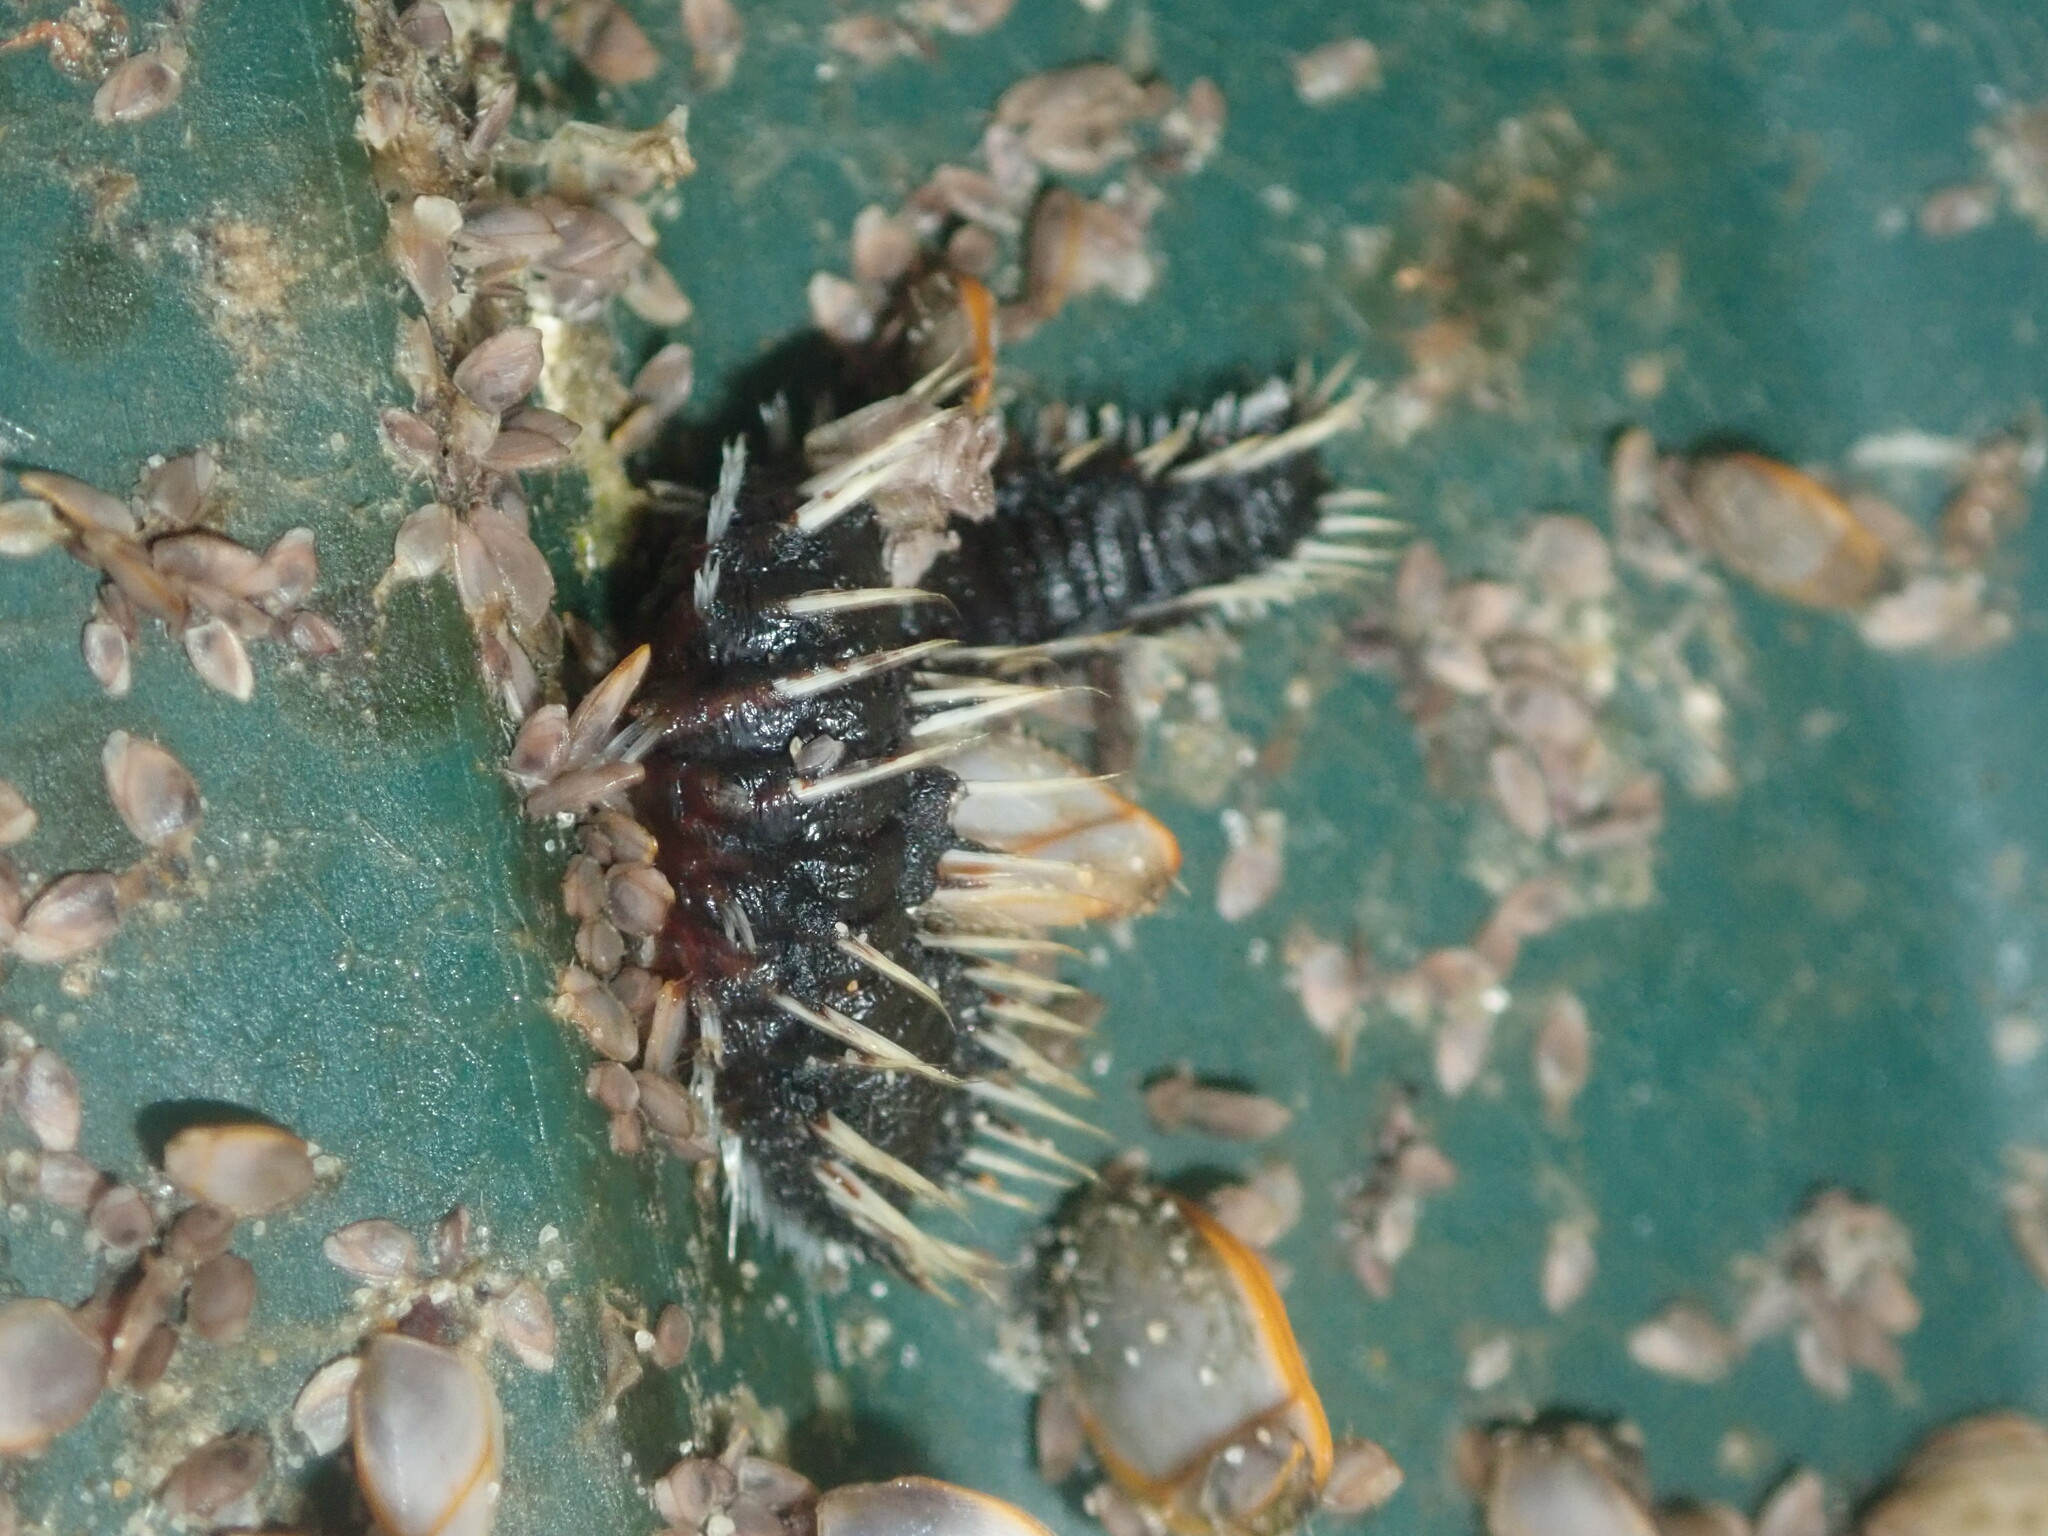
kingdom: Animalia
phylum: Annelida
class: Polychaeta
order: Amphinomida
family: Amphinomidae
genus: Amphinome
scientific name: Amphinome rostrata
